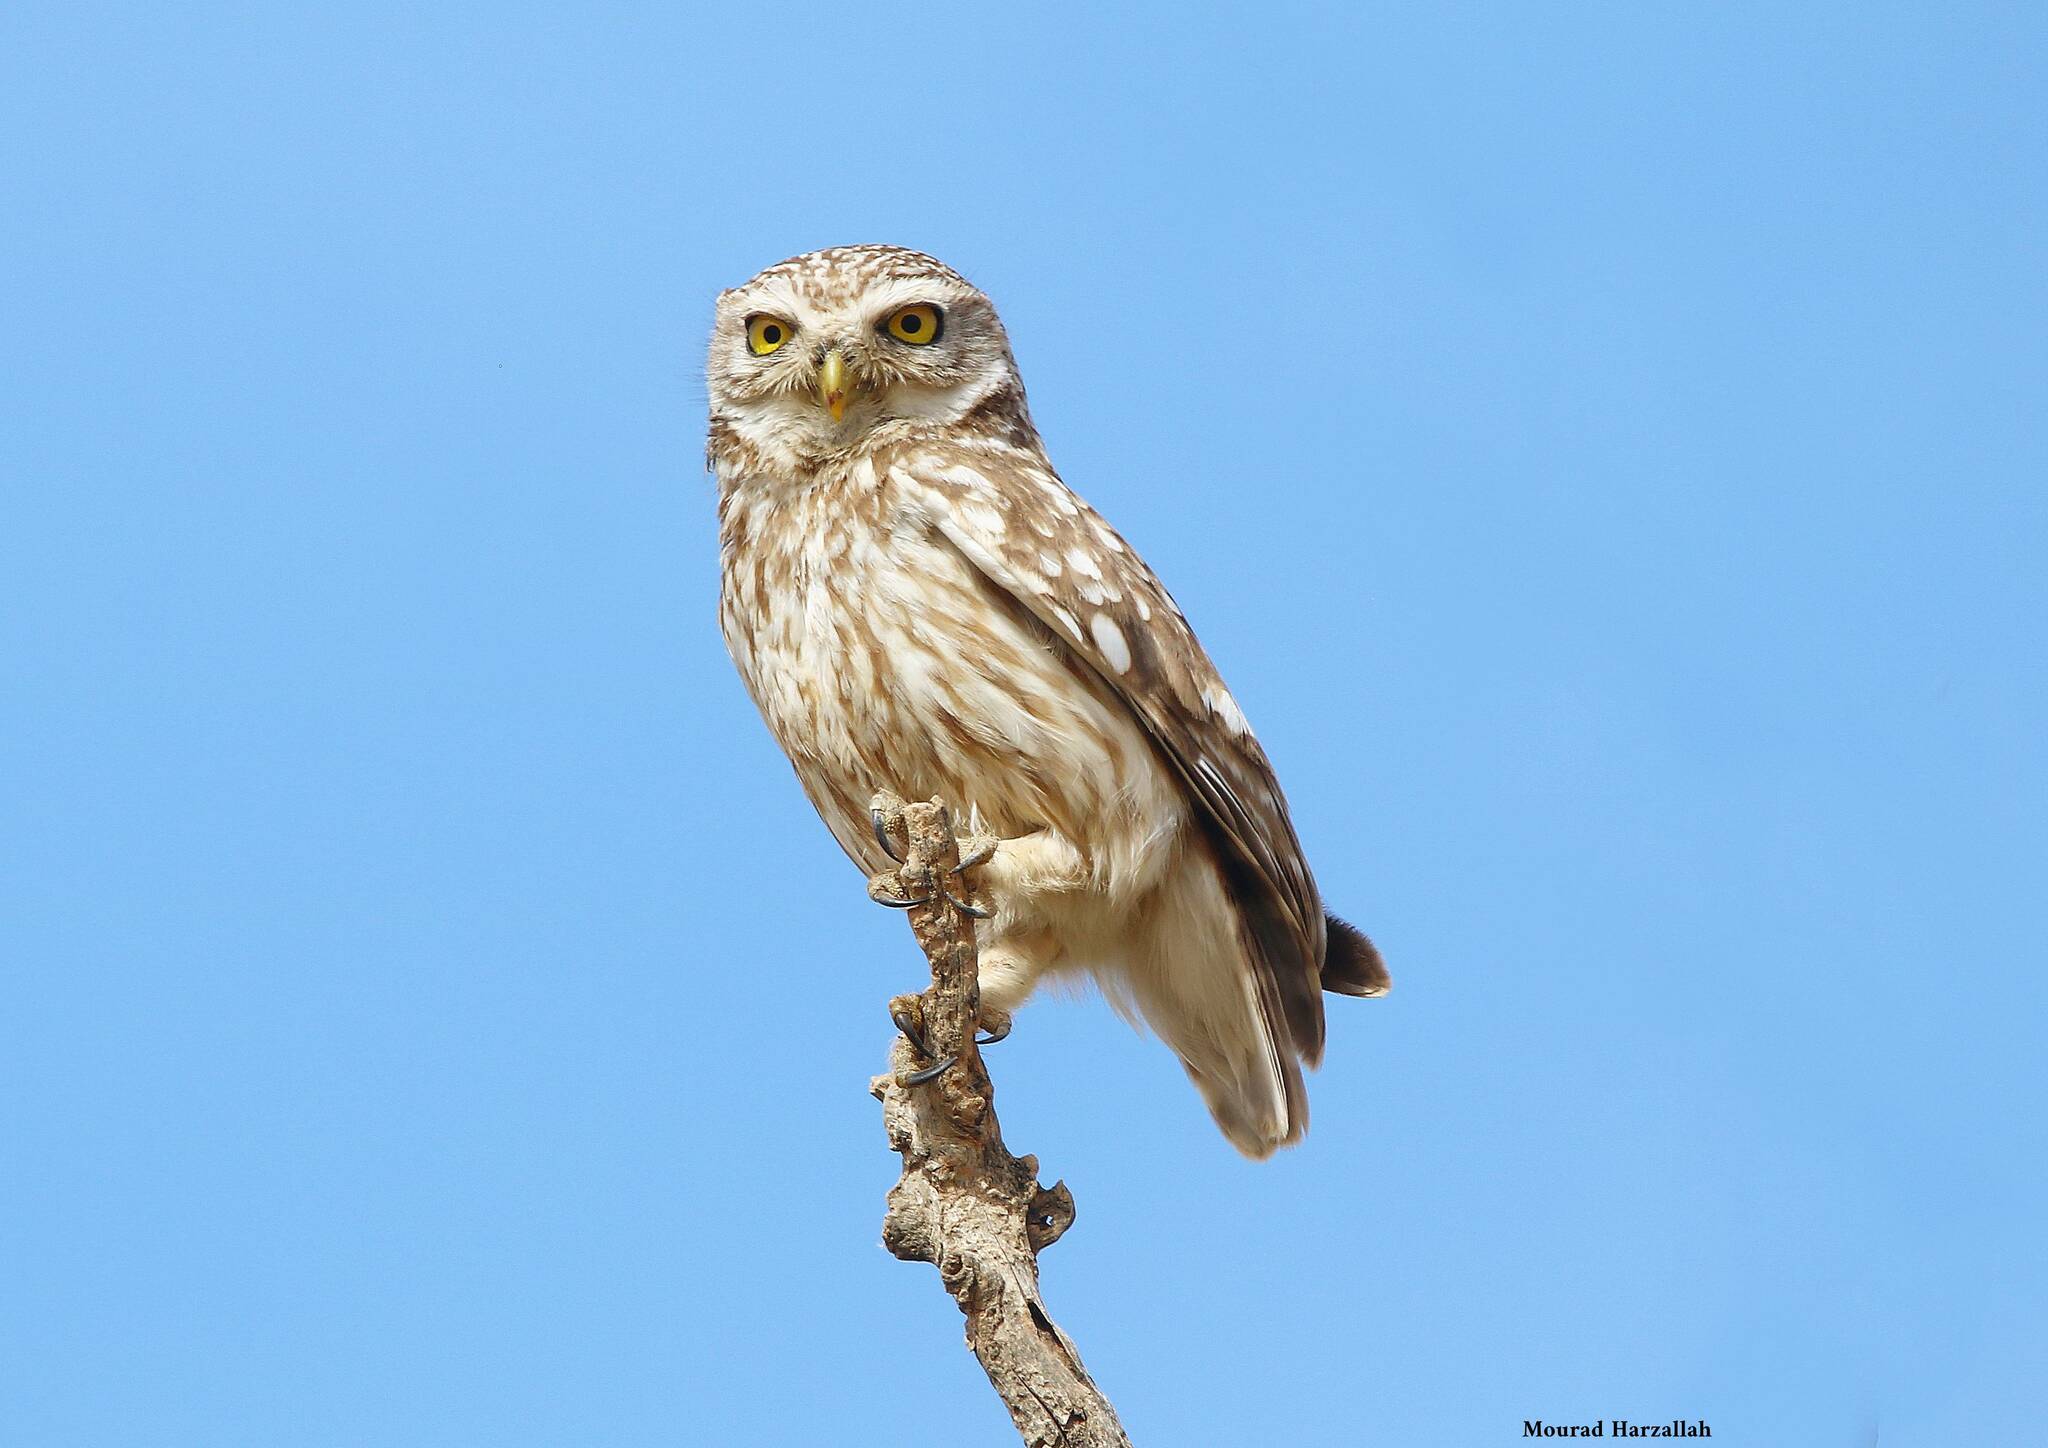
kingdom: Animalia
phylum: Chordata
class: Aves
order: Strigiformes
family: Strigidae
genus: Athene
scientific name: Athene noctua
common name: Little owl
